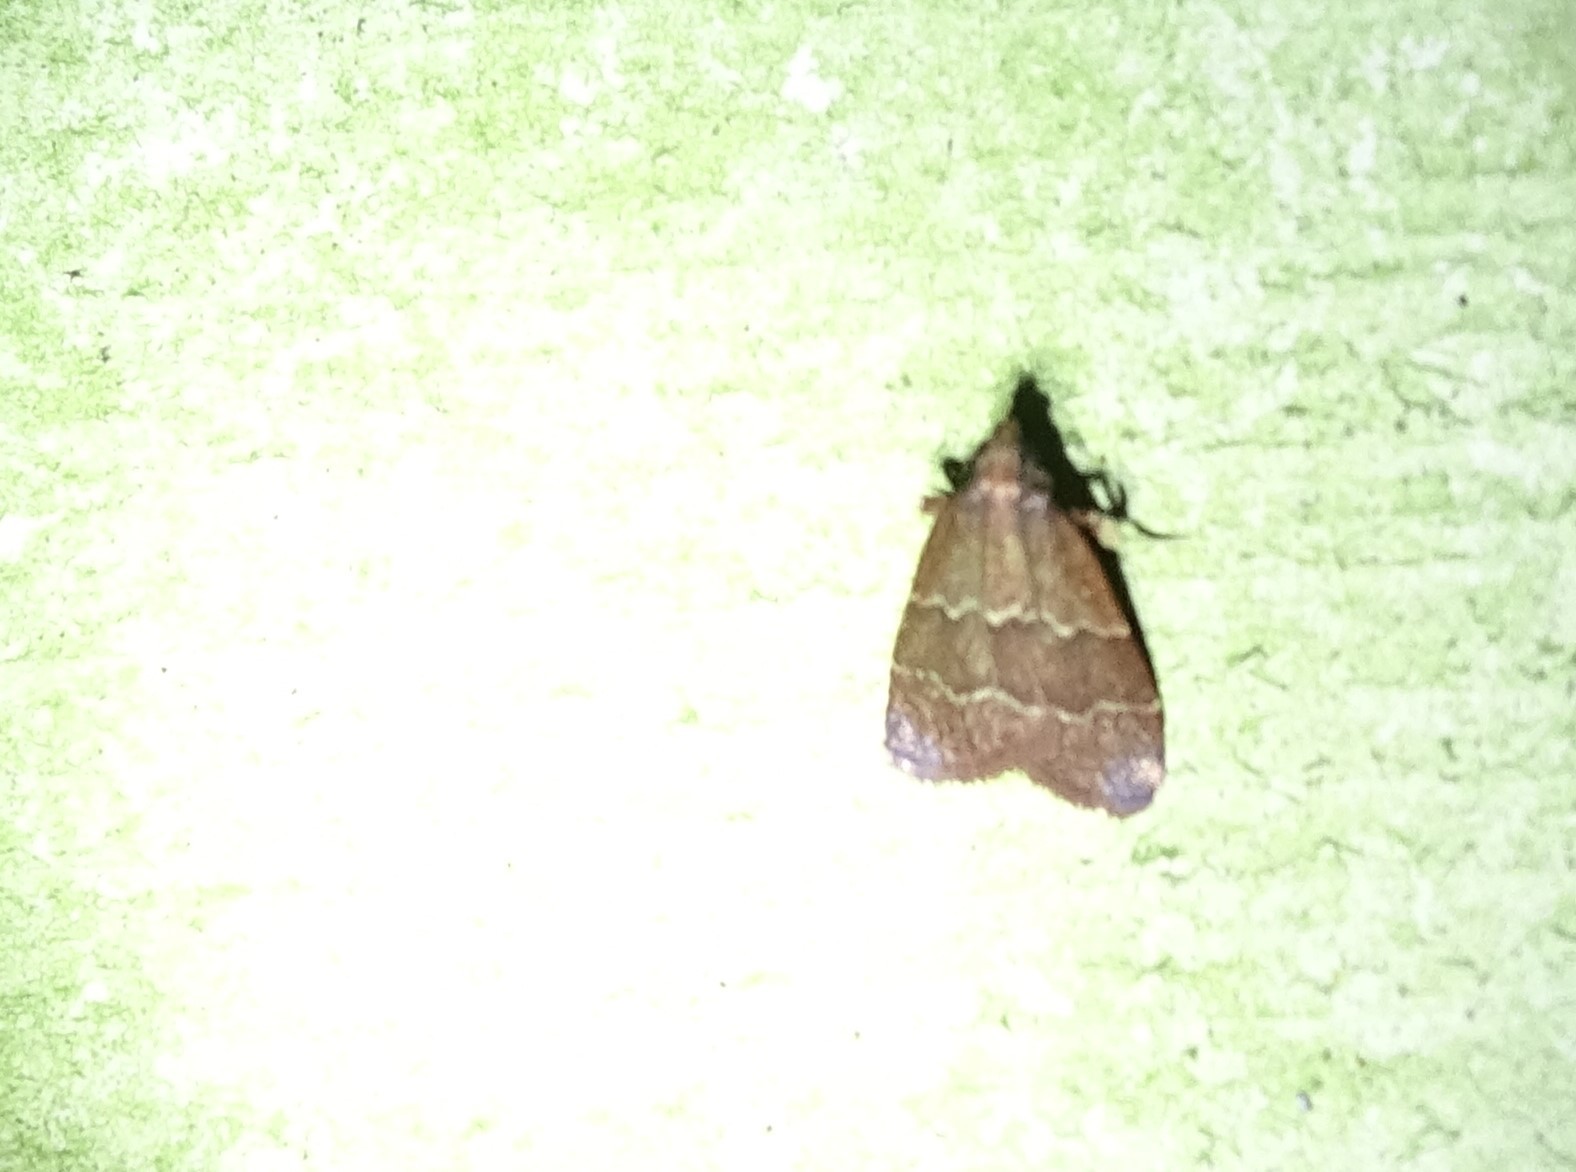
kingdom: Animalia
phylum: Arthropoda
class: Insecta
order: Lepidoptera
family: Pyralidae
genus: Arta
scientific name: Arta
